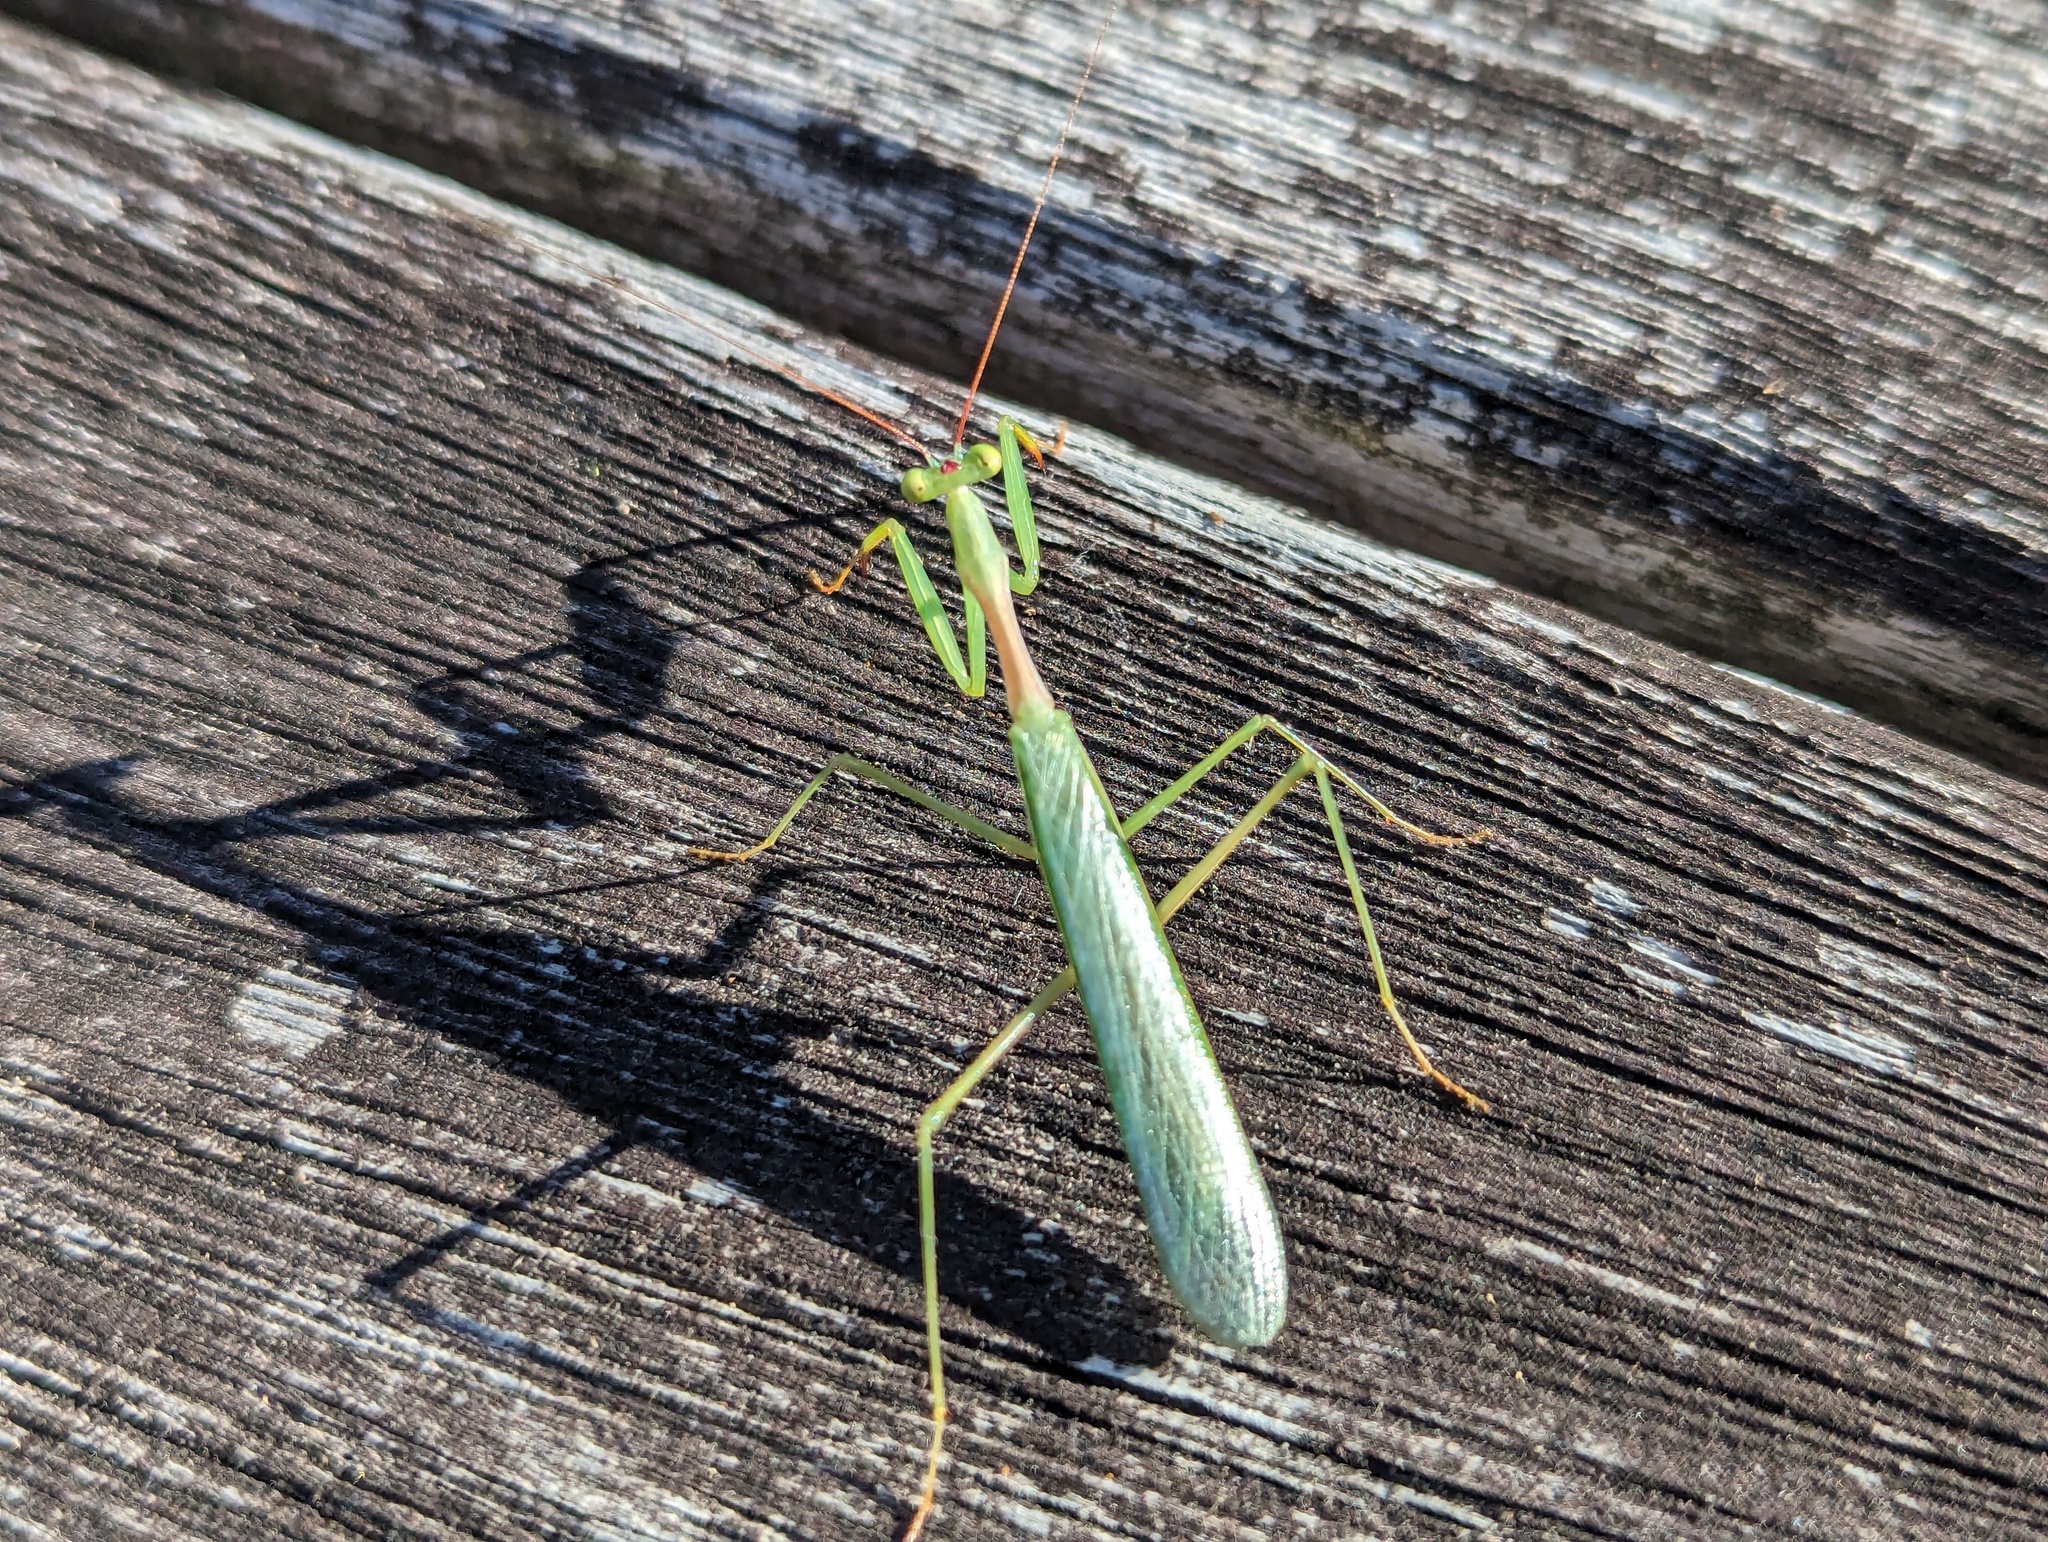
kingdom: Animalia
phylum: Arthropoda
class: Insecta
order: Mantodea
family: Miomantidae
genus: Miomantis
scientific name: Miomantis caffra
